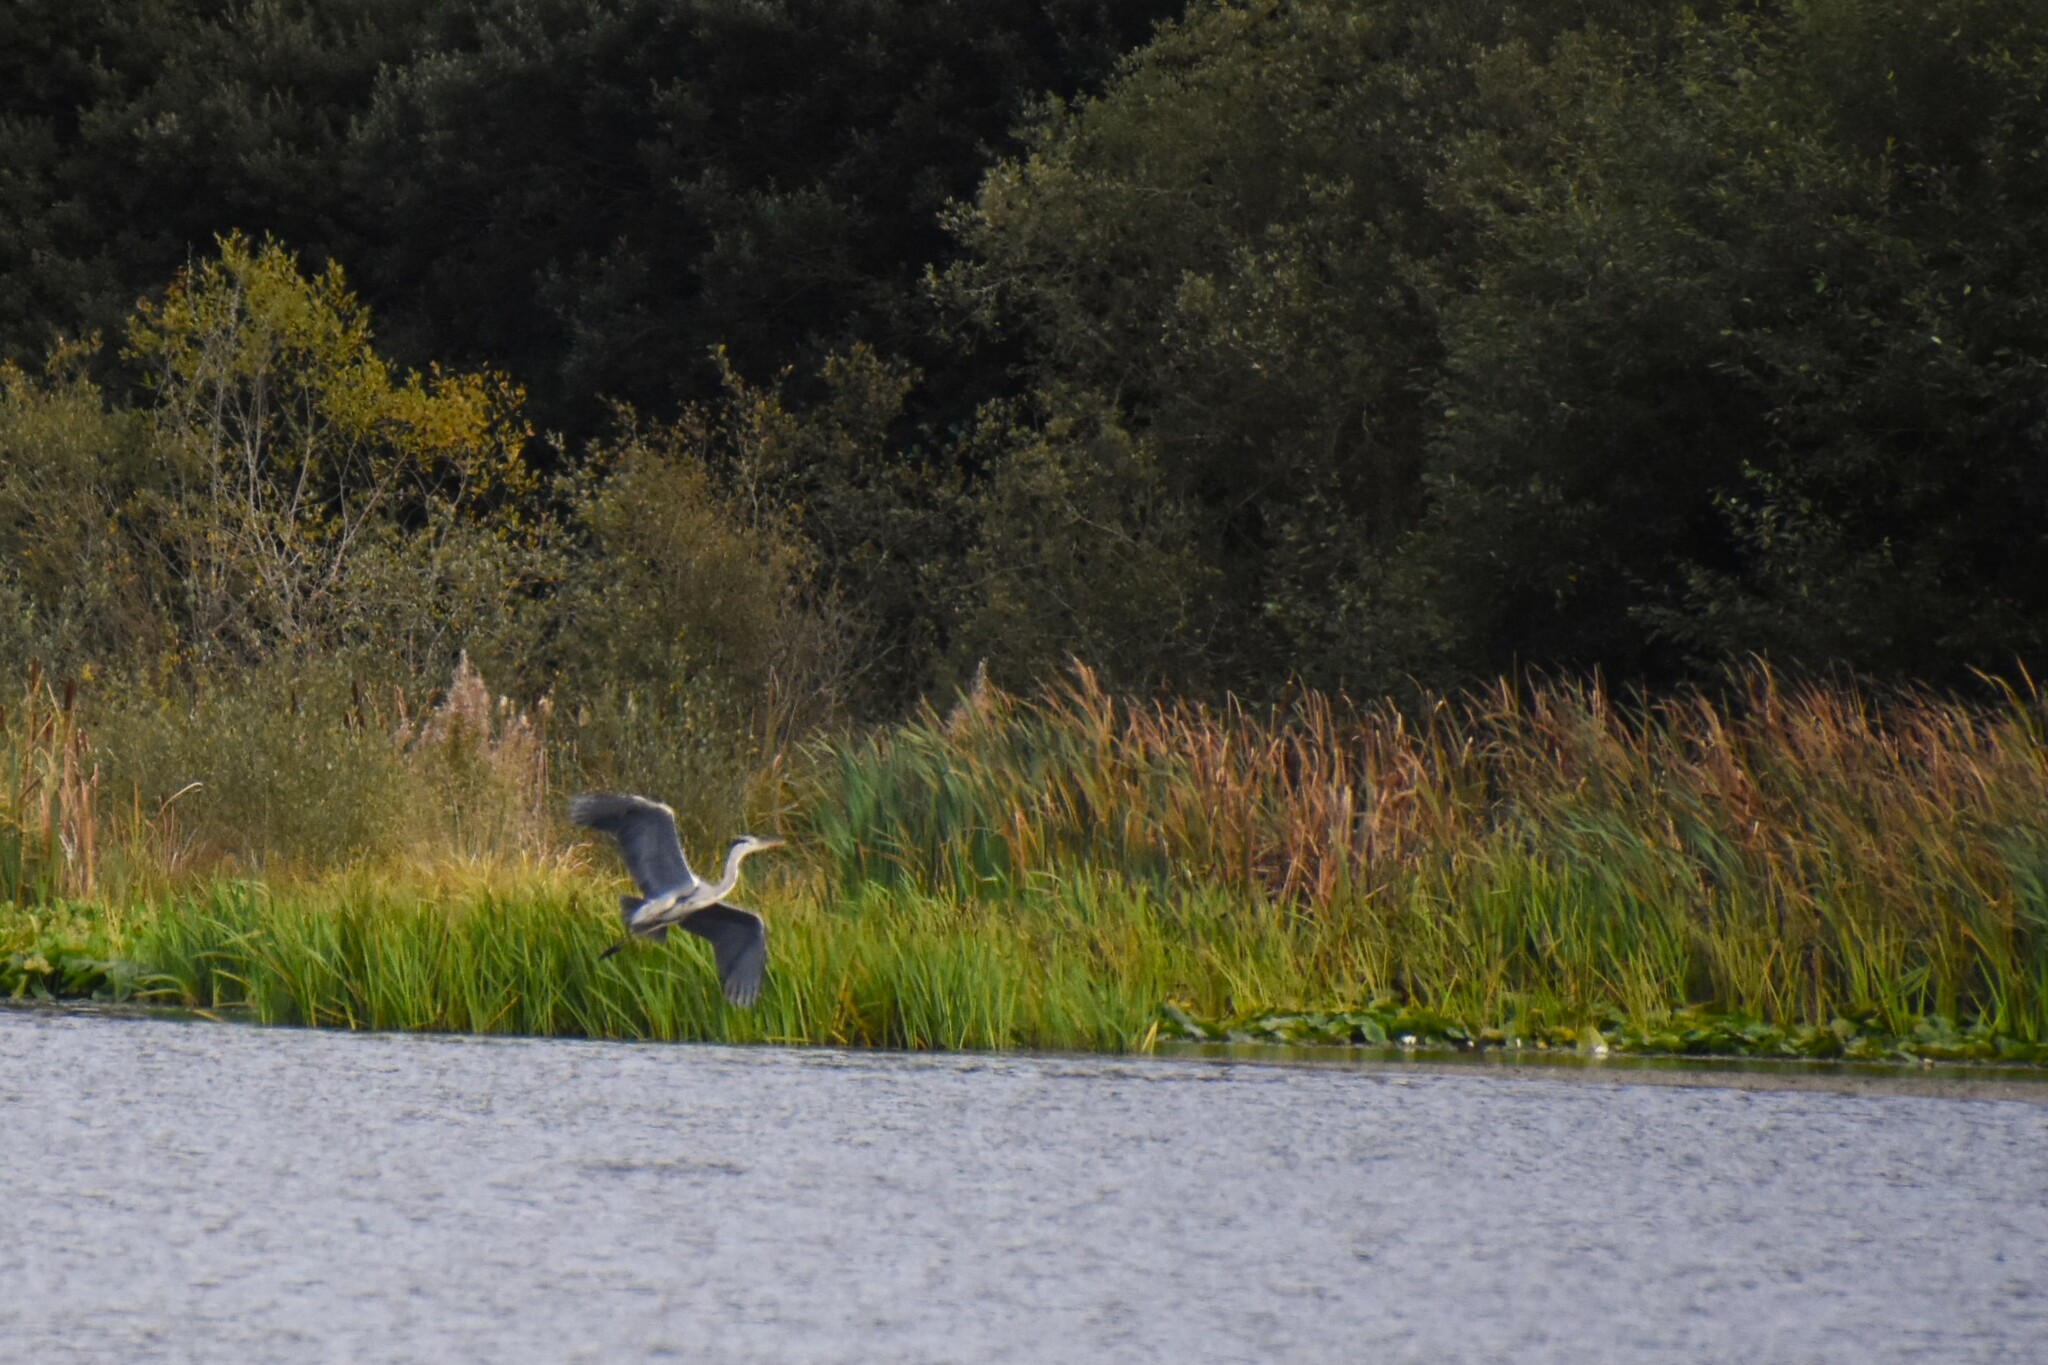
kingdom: Animalia
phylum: Chordata
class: Aves
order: Pelecaniformes
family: Ardeidae
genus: Ardea
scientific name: Ardea cinerea
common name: Grey heron
